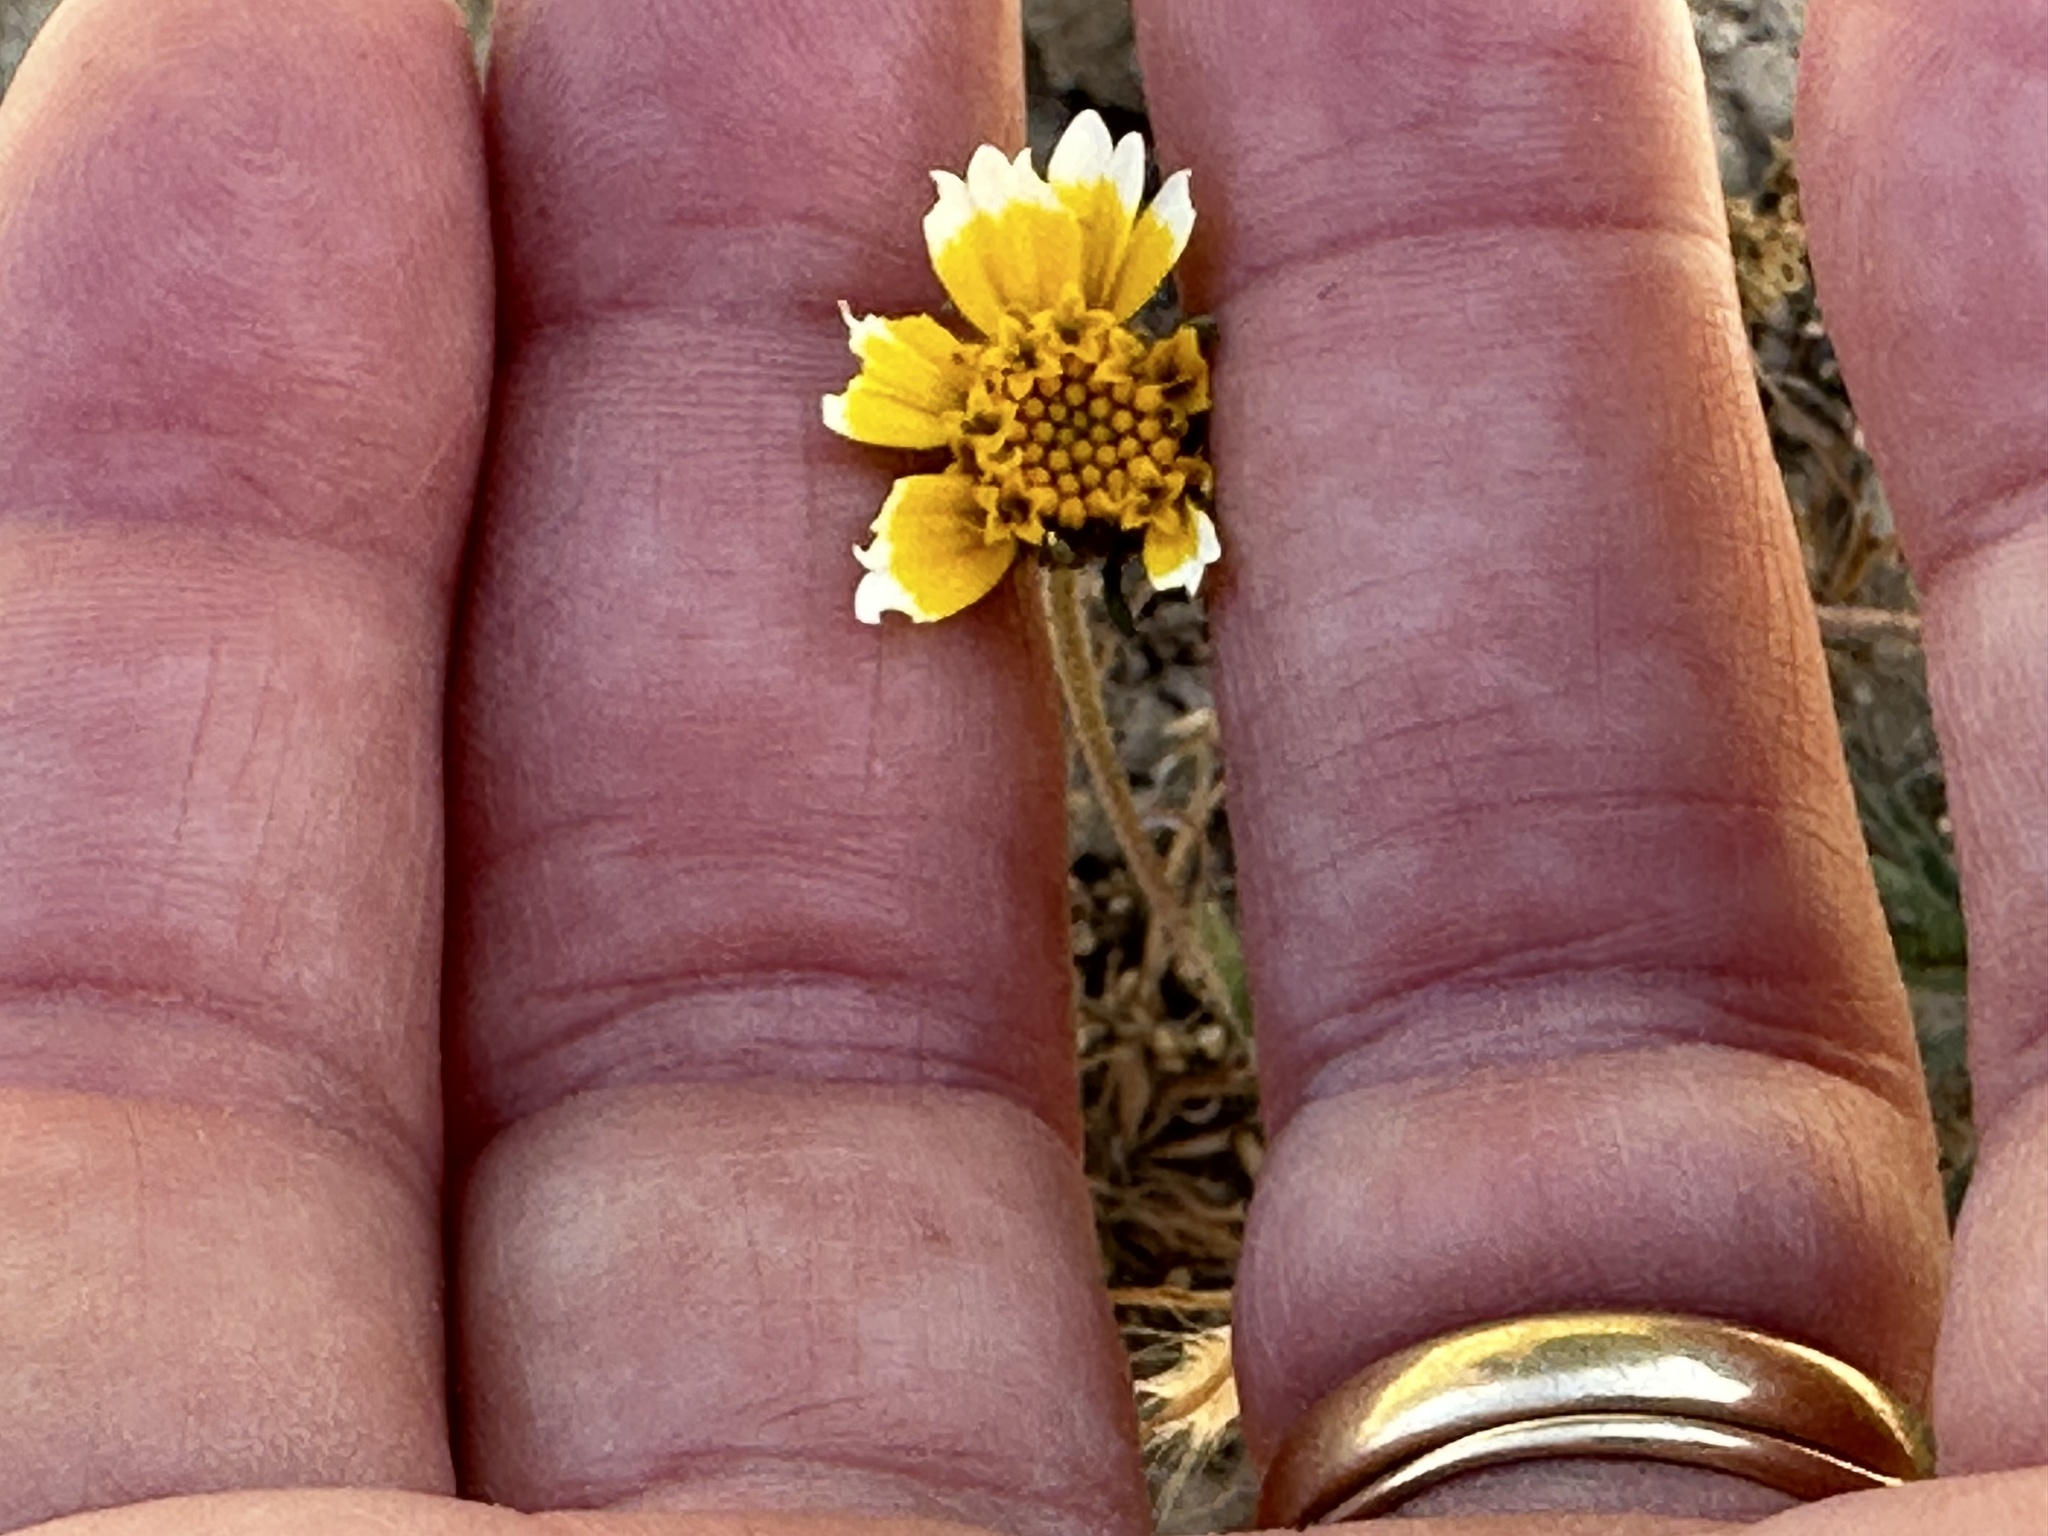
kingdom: Plantae
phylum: Tracheophyta
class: Magnoliopsida
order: Asterales
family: Asteraceae
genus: Layia
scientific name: Layia platyglossa
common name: Tidy-tips
